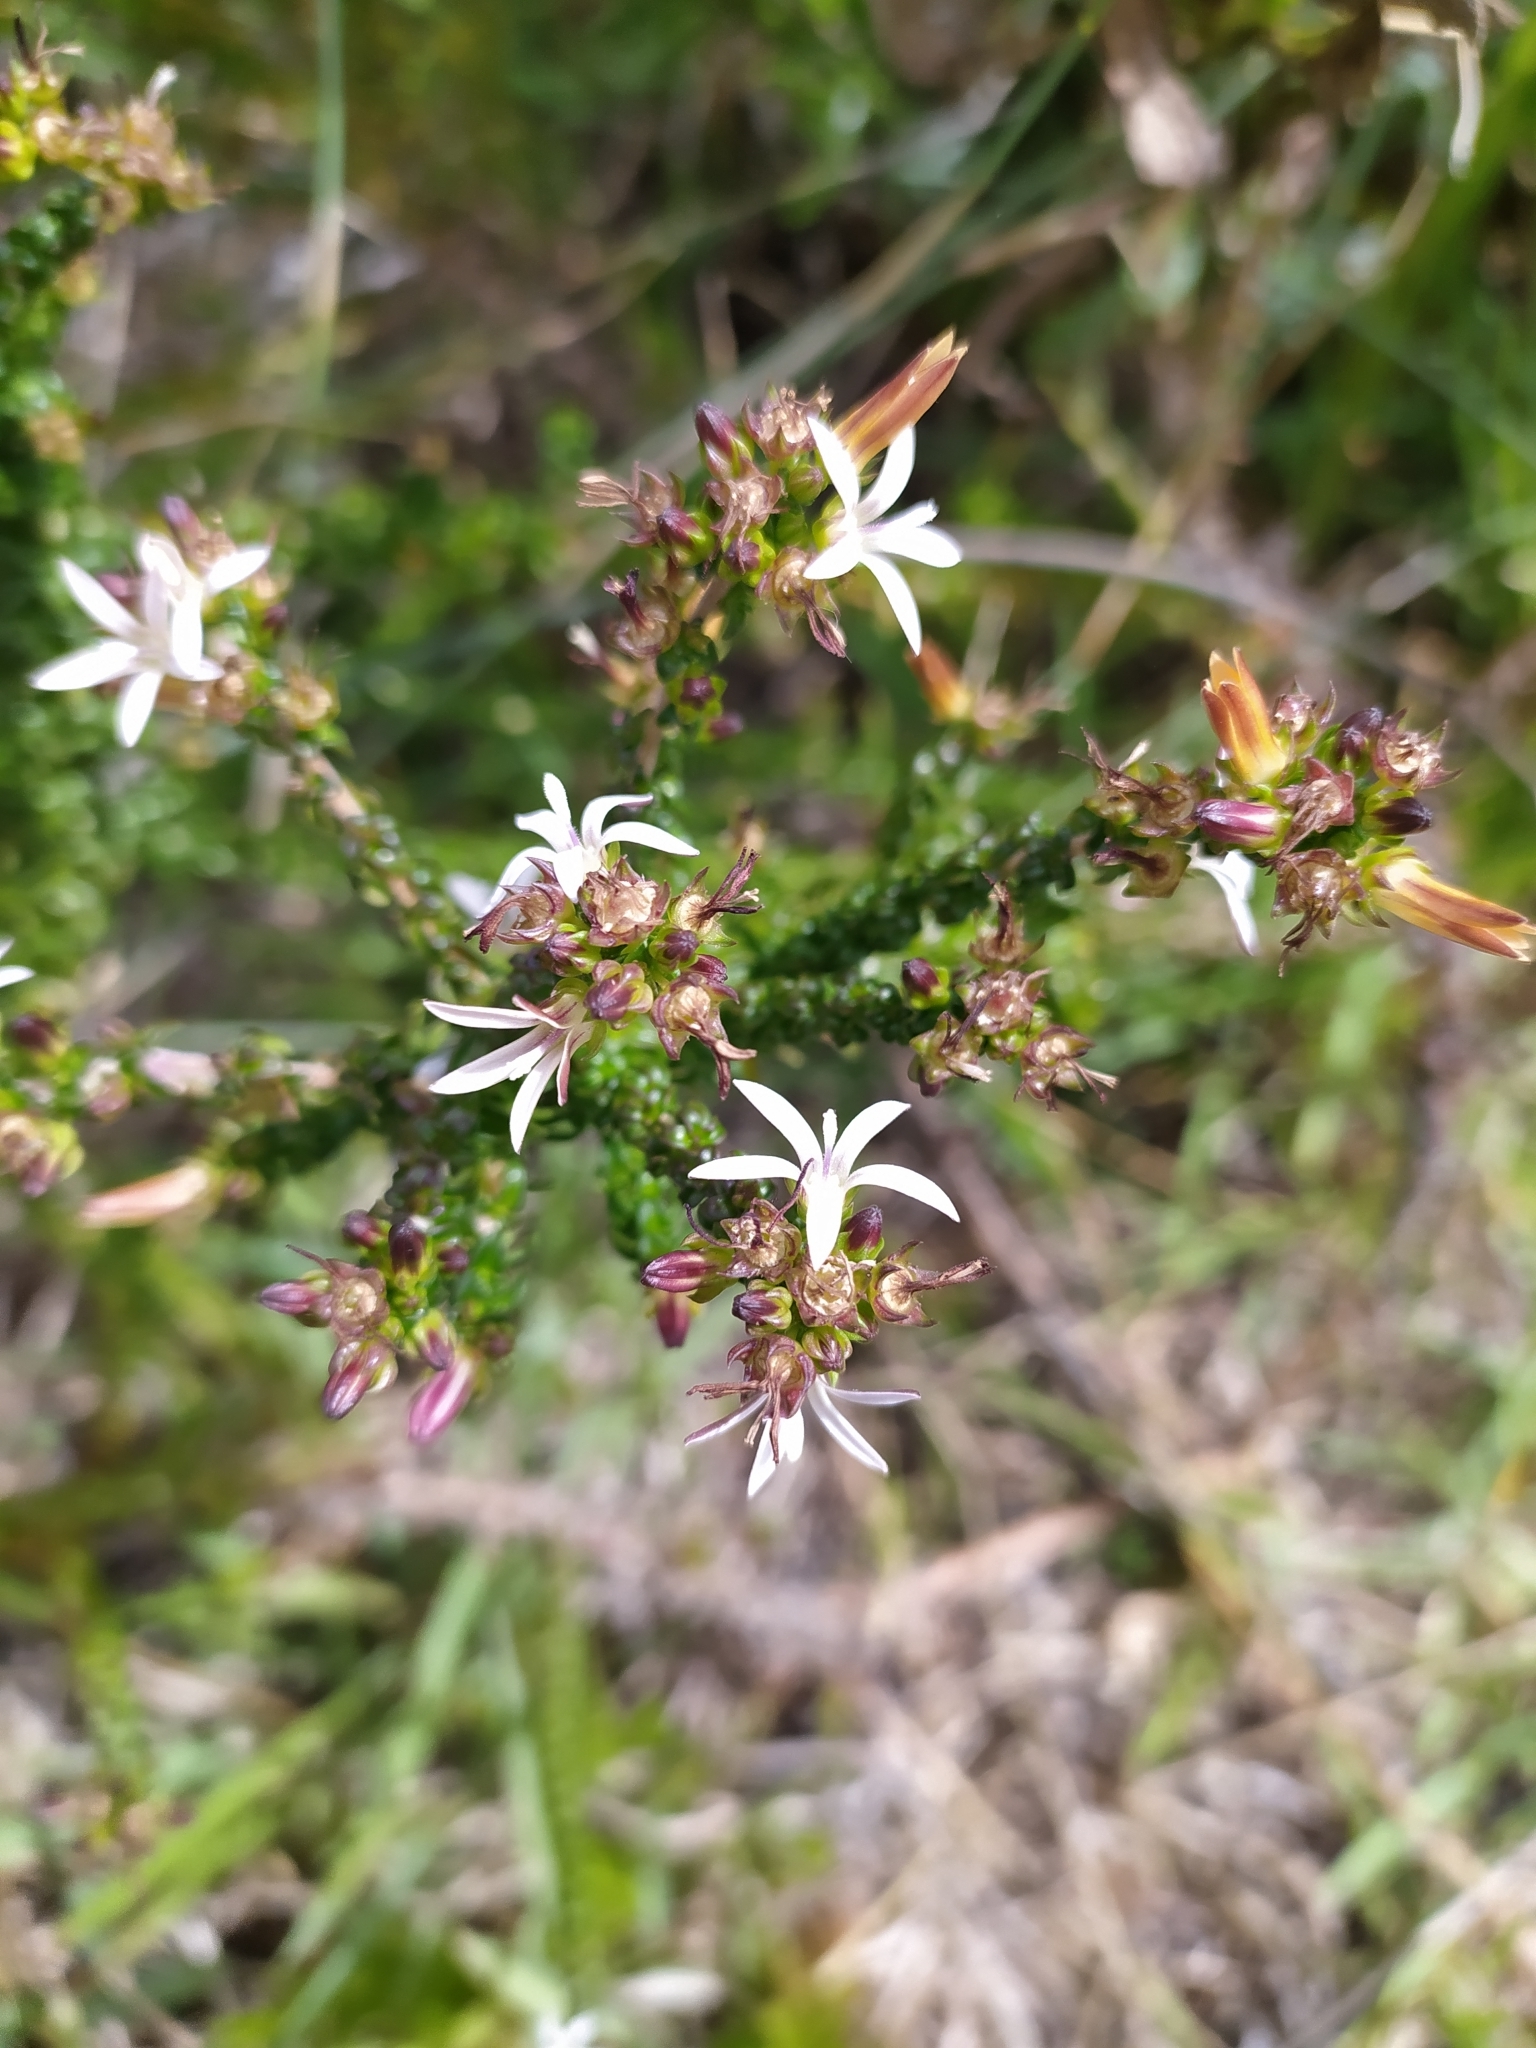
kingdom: Plantae
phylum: Tracheophyta
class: Magnoliopsida
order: Asterales
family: Campanulaceae
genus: Wahlenbergia
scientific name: Wahlenbergia tenella
